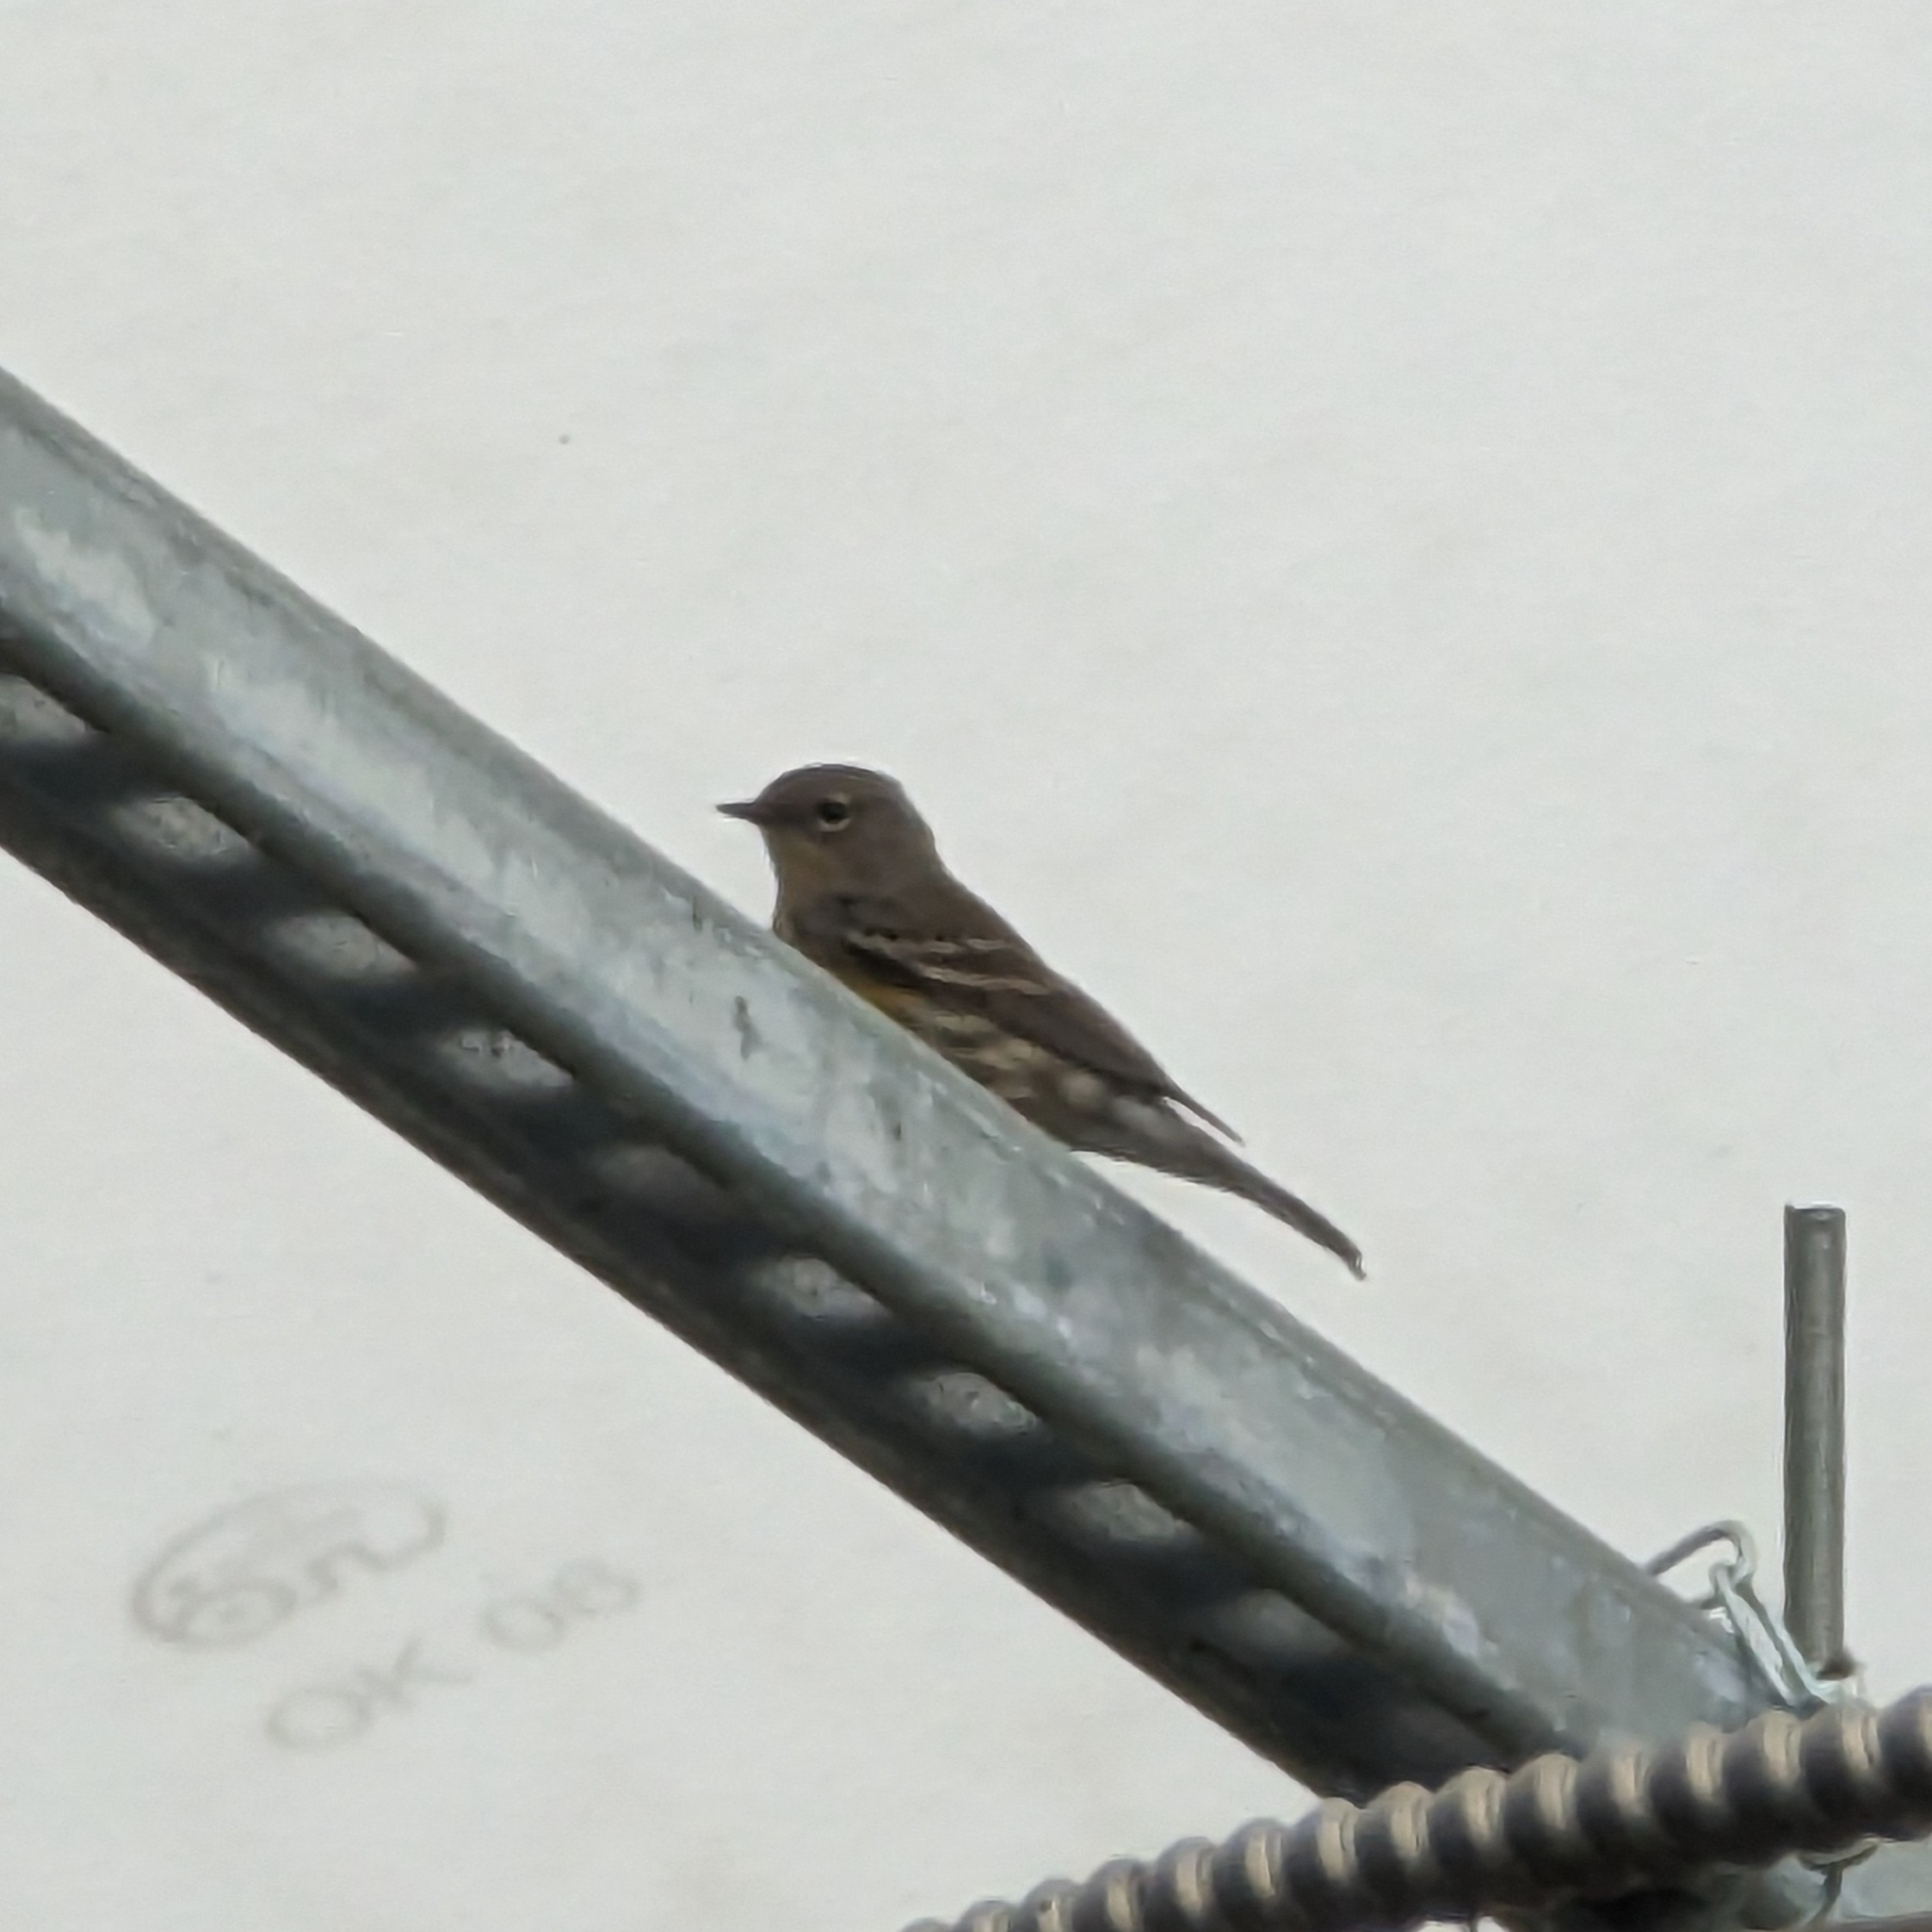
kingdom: Animalia
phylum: Chordata
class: Aves
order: Passeriformes
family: Parulidae
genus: Setophaga
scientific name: Setophaga coronata
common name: Myrtle warbler
